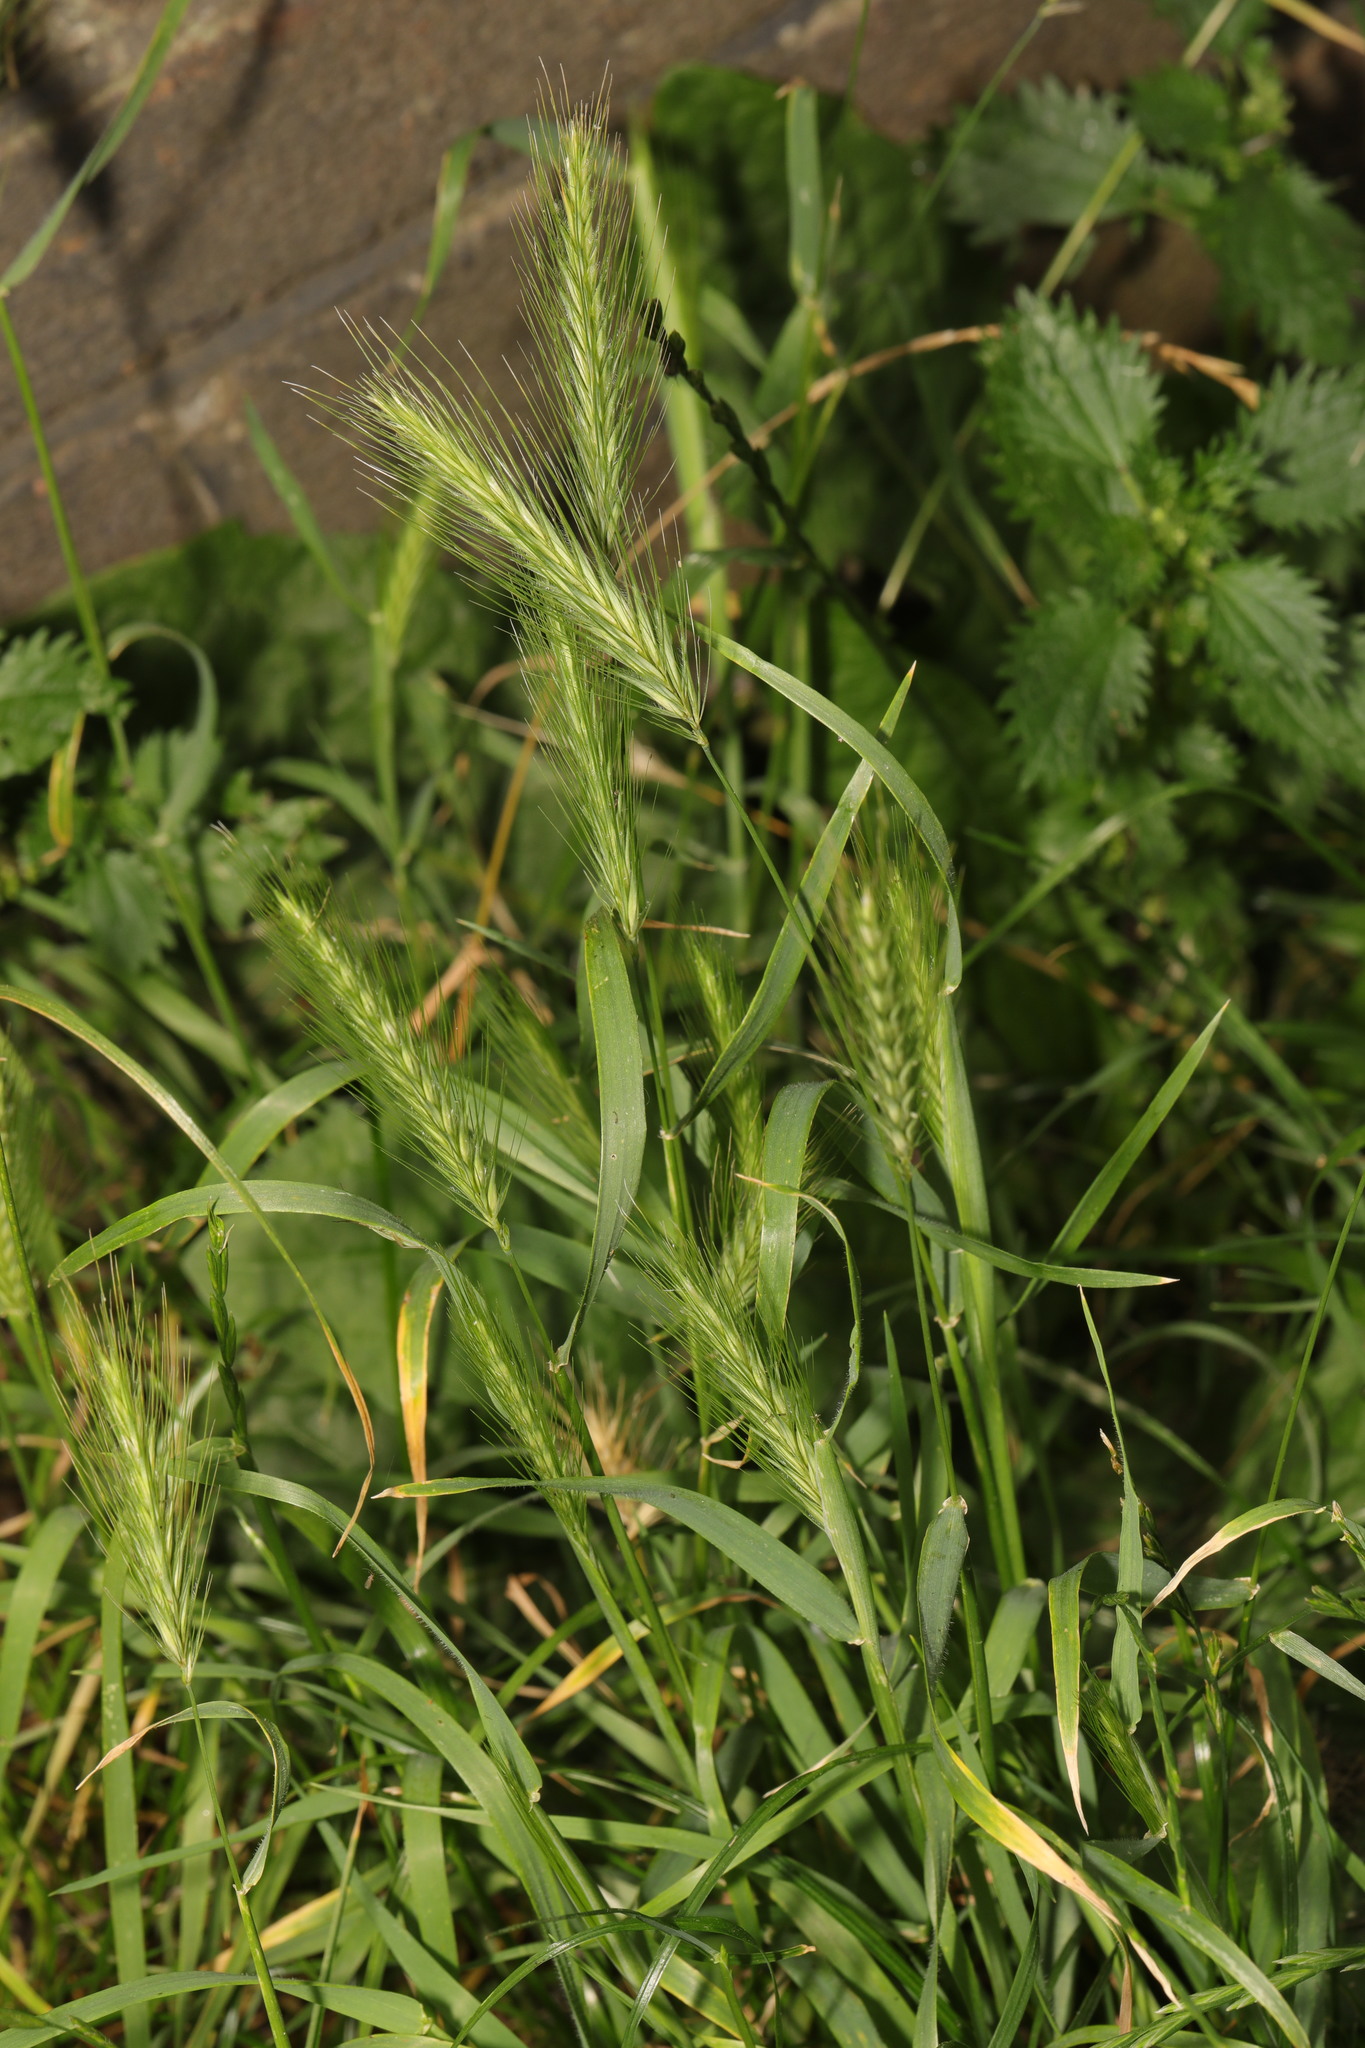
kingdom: Plantae
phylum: Tracheophyta
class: Liliopsida
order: Poales
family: Poaceae
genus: Hordeum
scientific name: Hordeum murinum
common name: Wall barley
